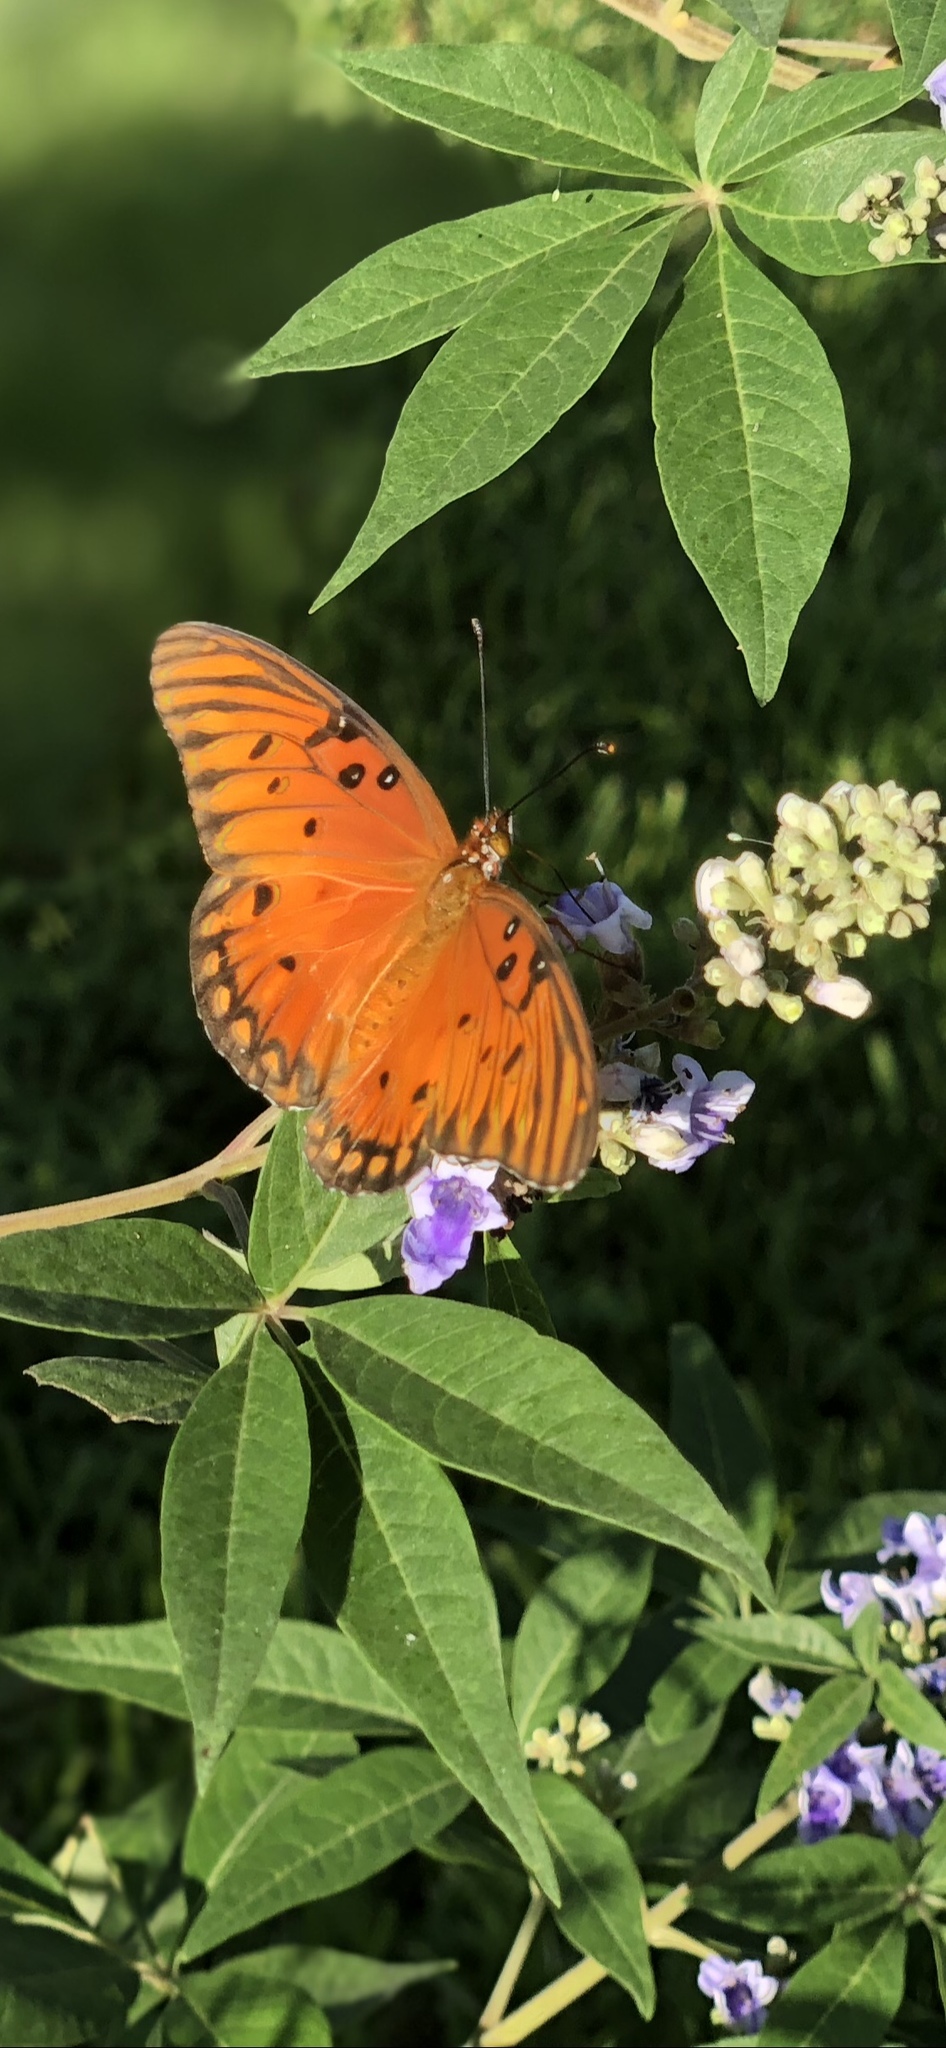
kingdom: Animalia
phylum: Arthropoda
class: Insecta
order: Lepidoptera
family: Nymphalidae
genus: Dione
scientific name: Dione vanillae
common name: Gulf fritillary
